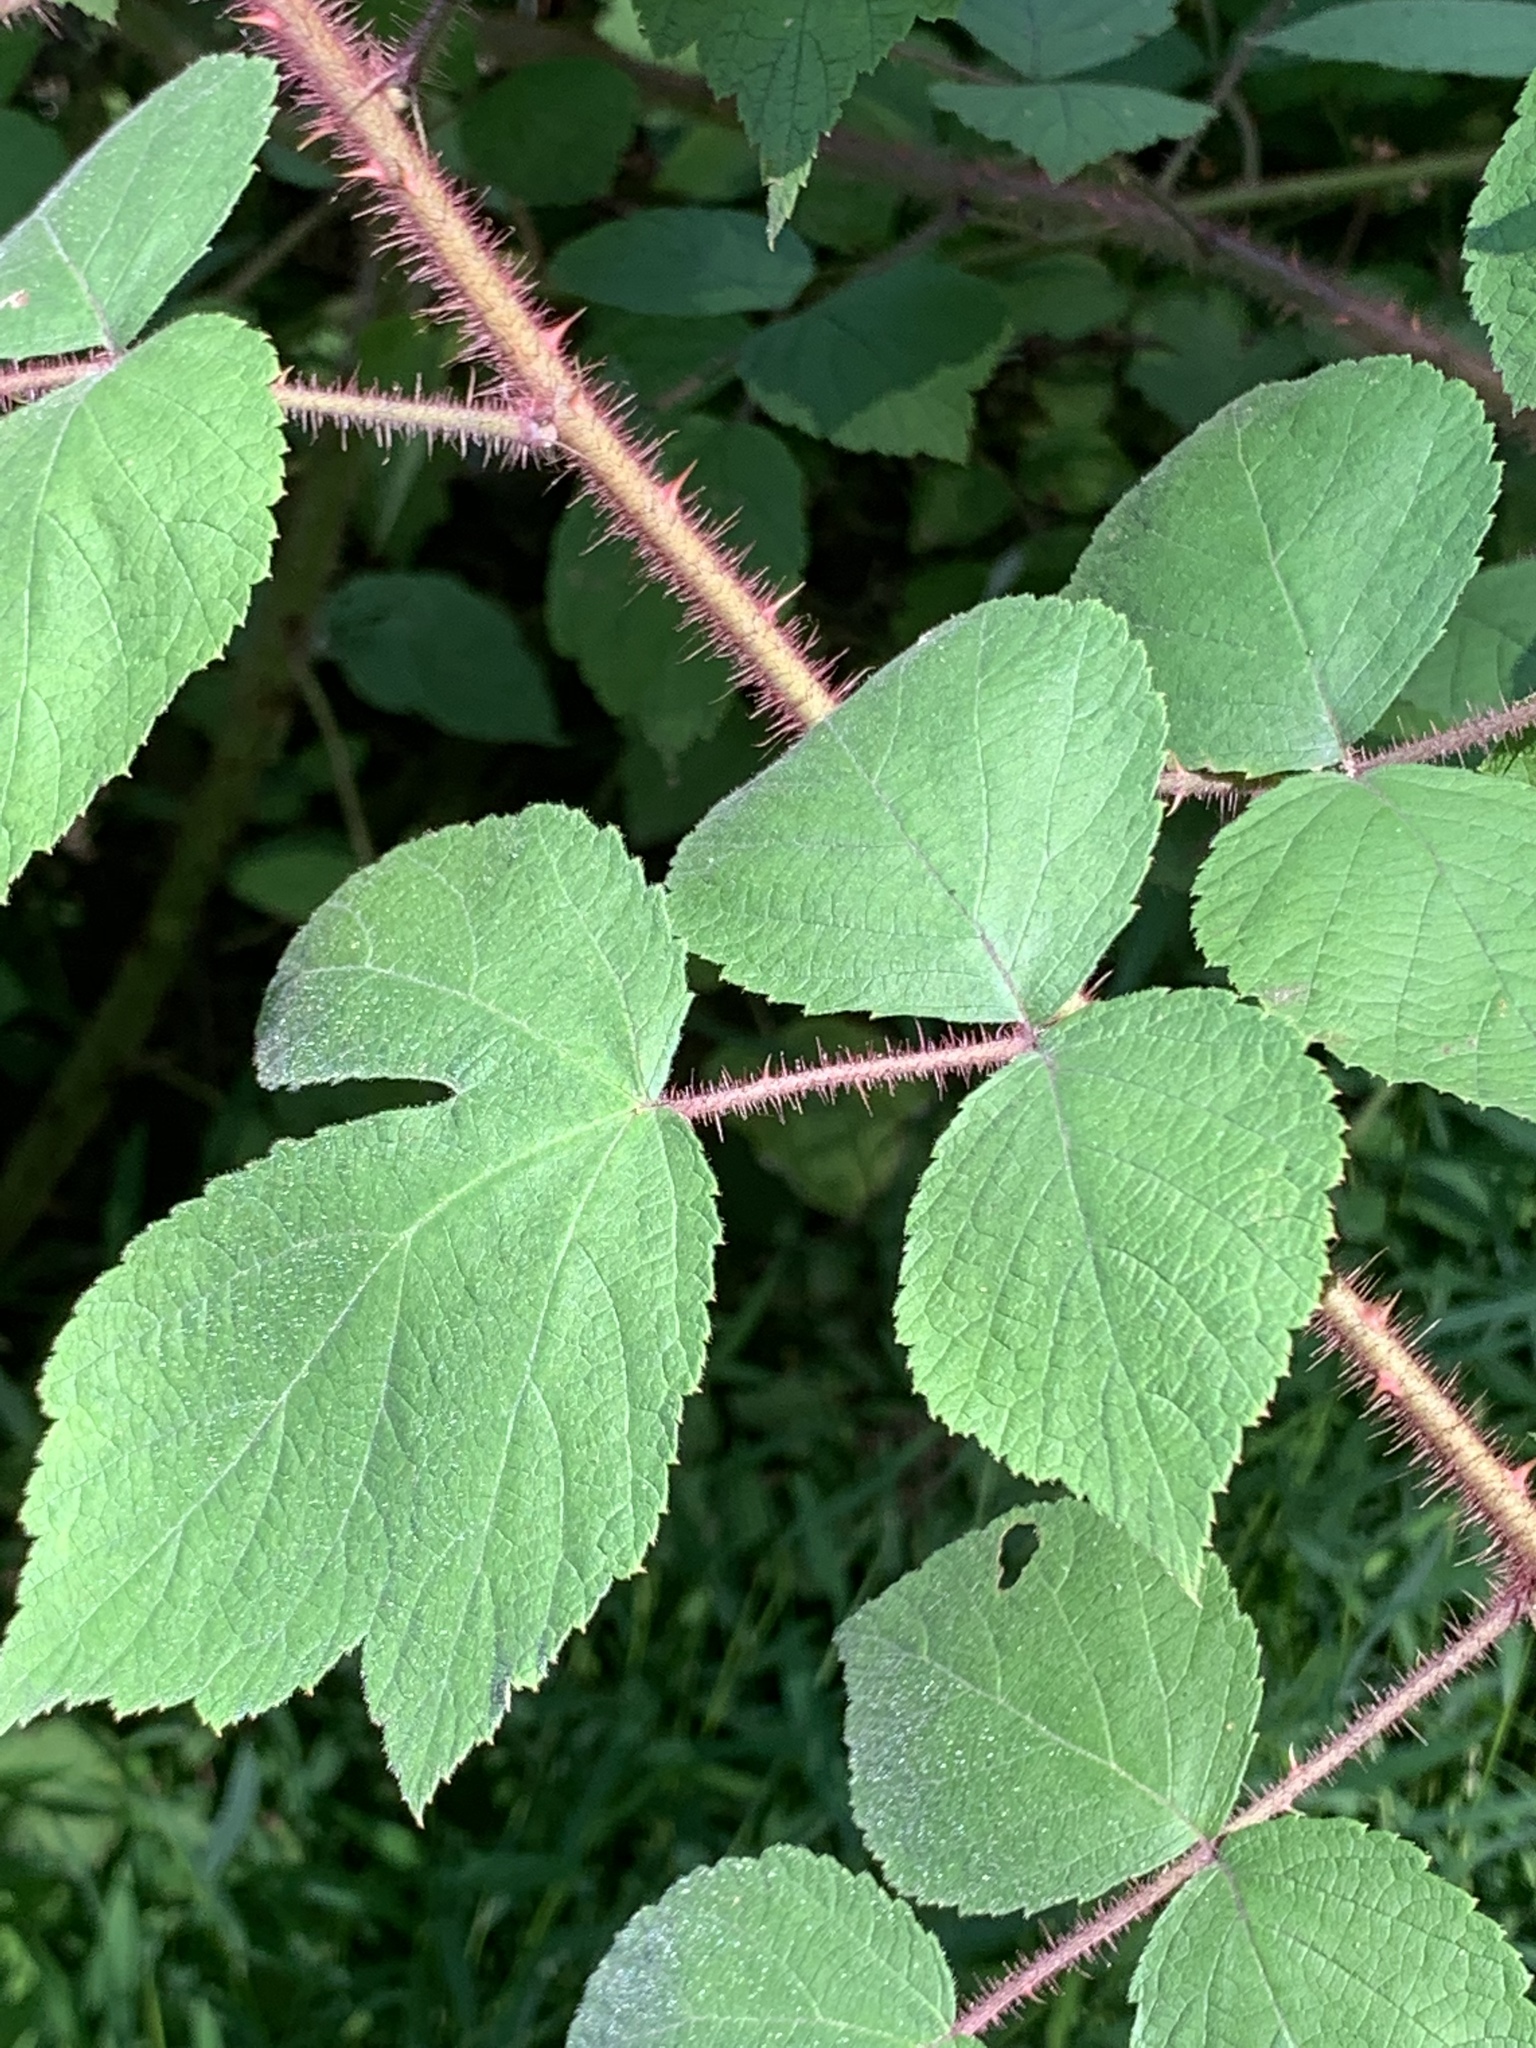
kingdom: Plantae
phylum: Tracheophyta
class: Magnoliopsida
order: Rosales
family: Rosaceae
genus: Rubus
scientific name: Rubus phoenicolasius
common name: Japanese wineberry
